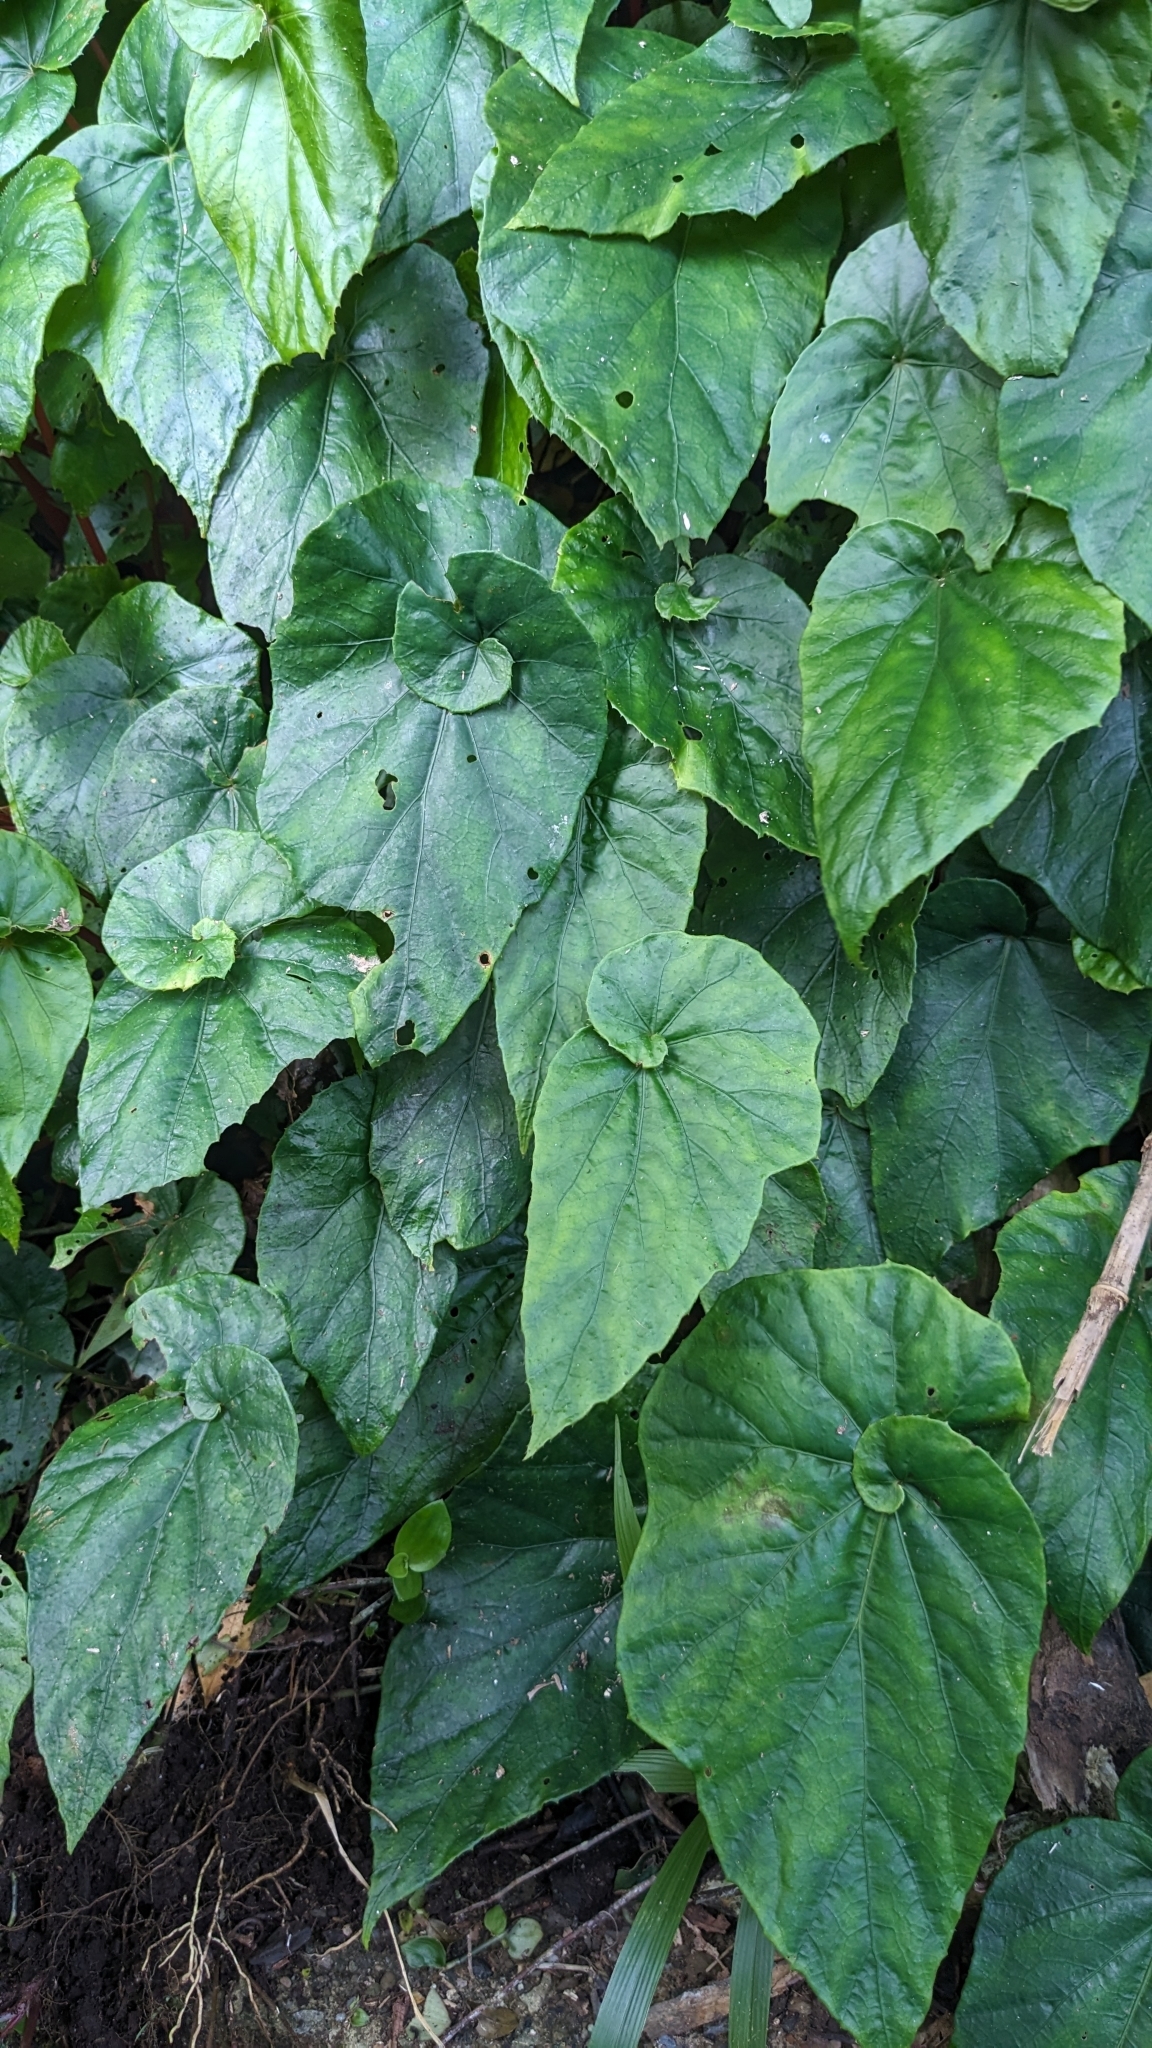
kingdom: Plantae
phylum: Tracheophyta
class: Magnoliopsida
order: Cucurbitales
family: Begoniaceae
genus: Begonia
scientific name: Begonia formosana
